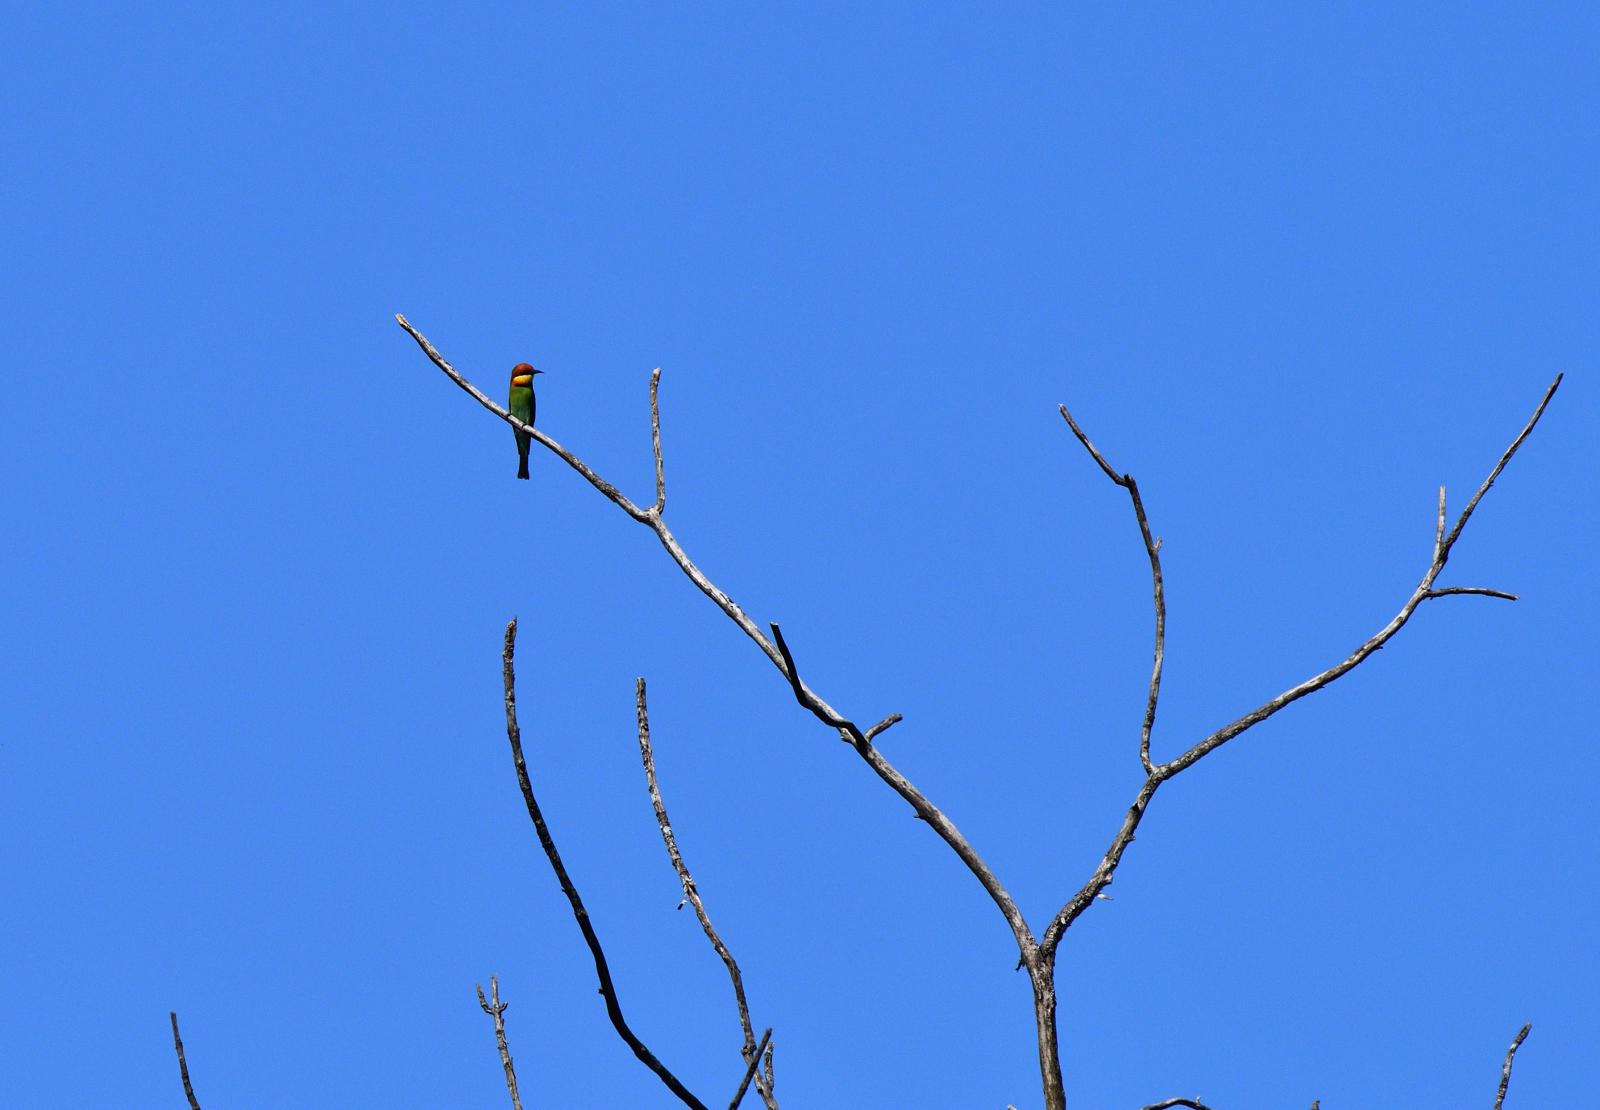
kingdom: Animalia
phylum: Chordata
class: Aves
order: Coraciiformes
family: Meropidae
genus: Merops
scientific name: Merops leschenaulti
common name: Chestnut-headed bee-eater
